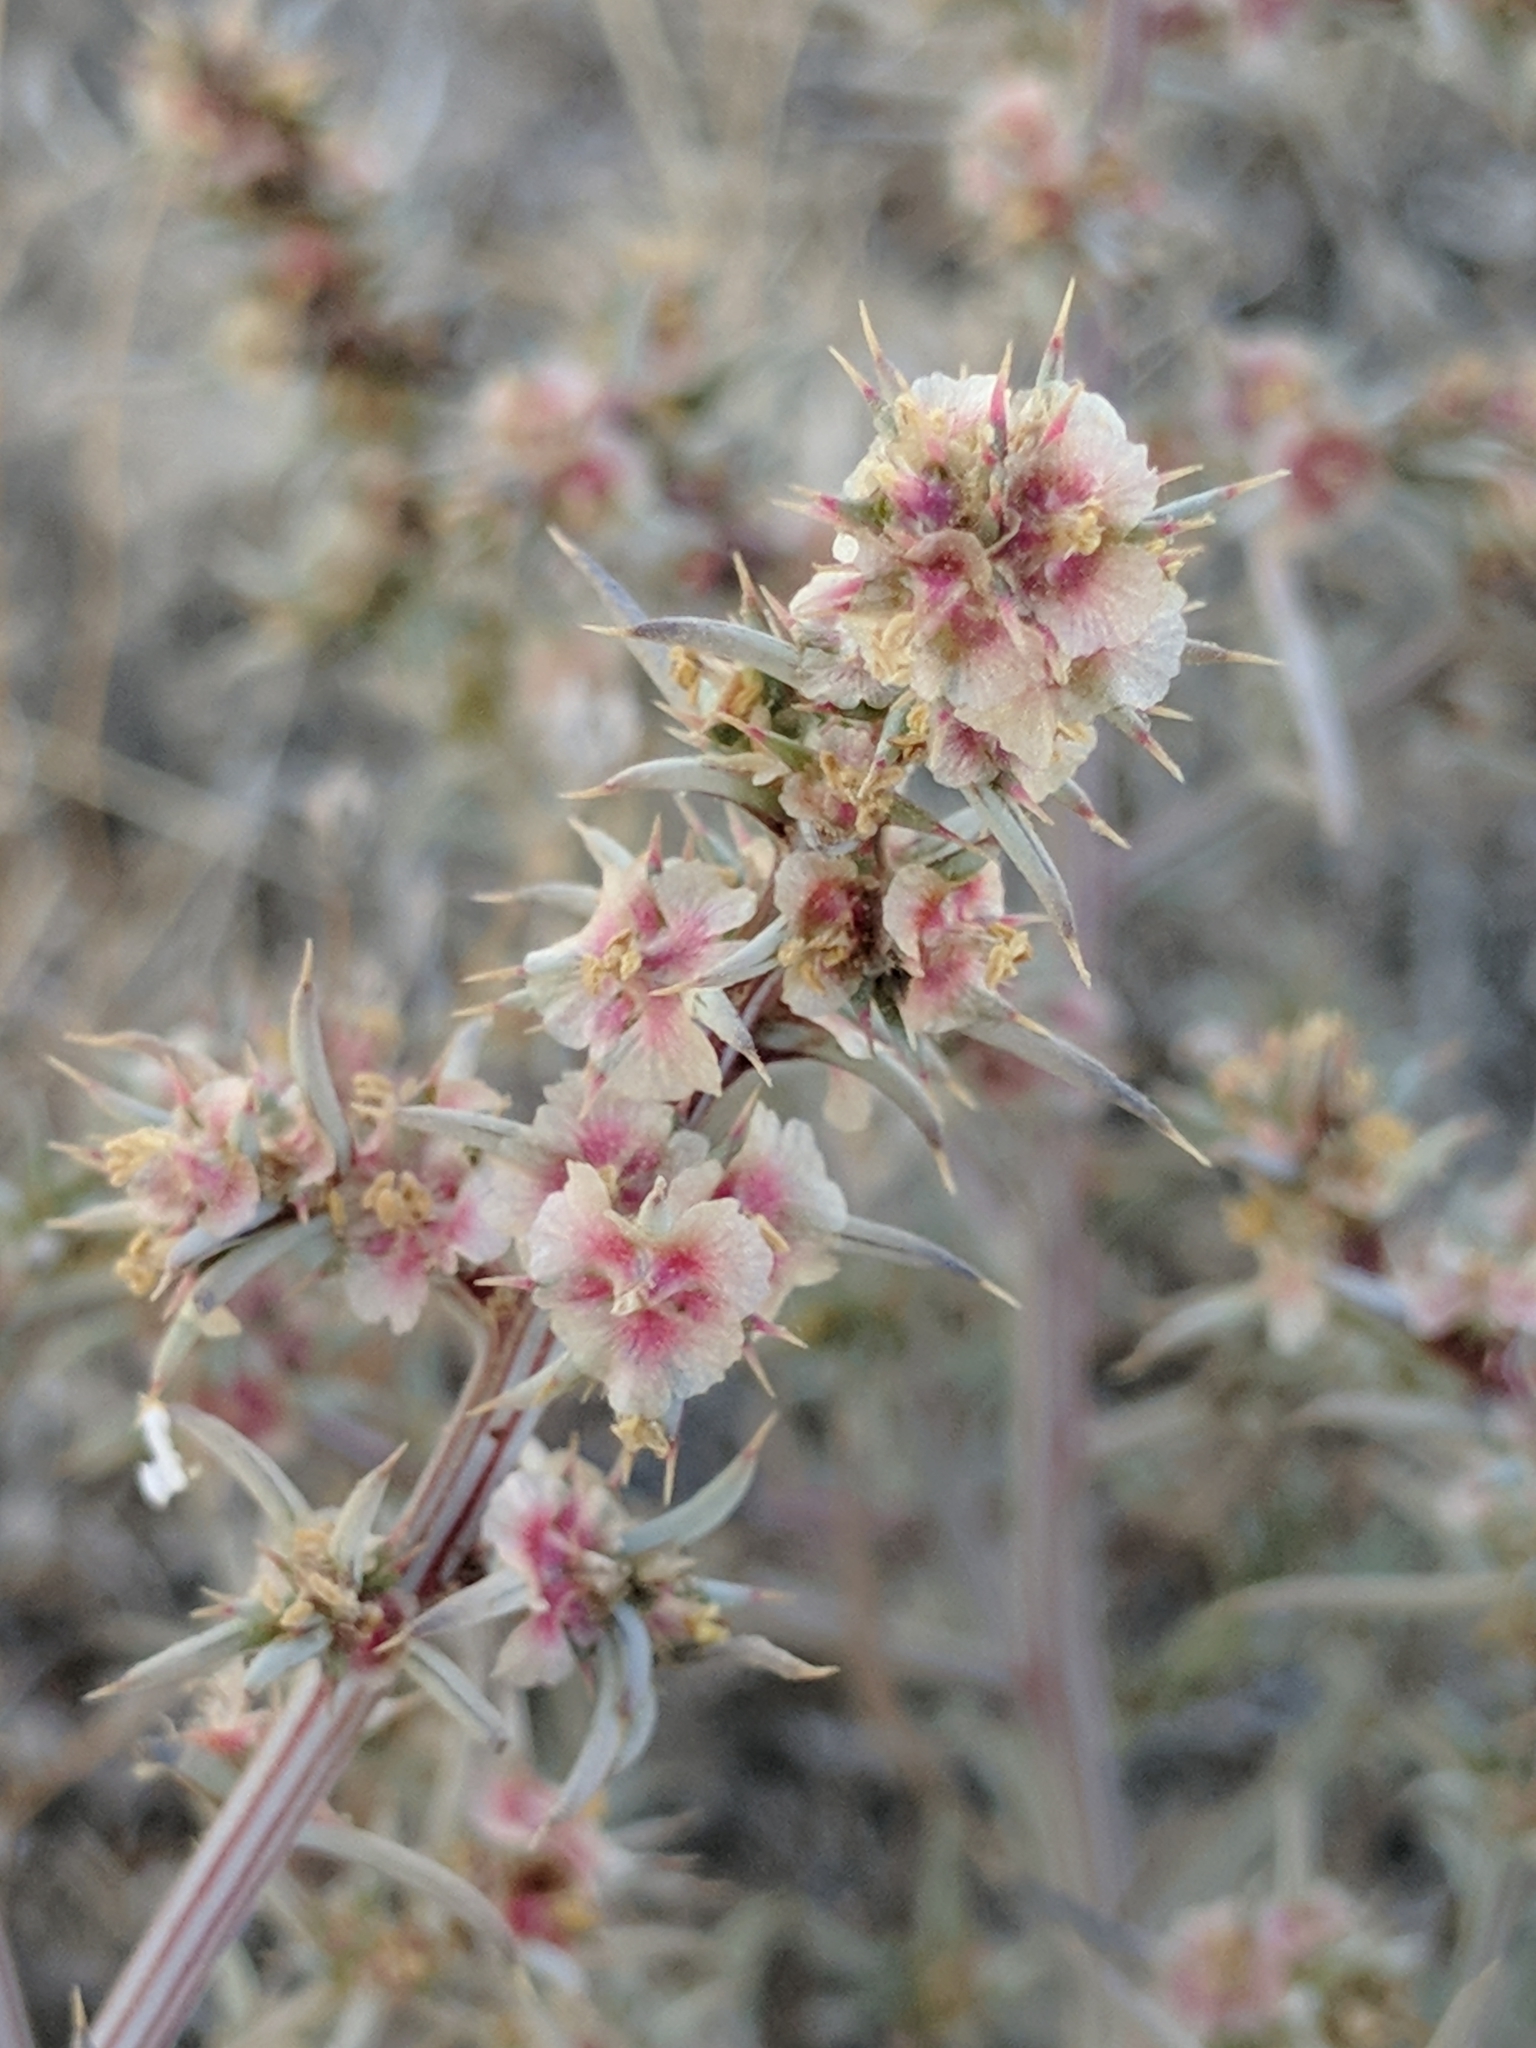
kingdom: Plantae
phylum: Tracheophyta
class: Magnoliopsida
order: Caryophyllales
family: Amaranthaceae
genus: Salsola
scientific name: Salsola tragus
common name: Prickly russian thistle
